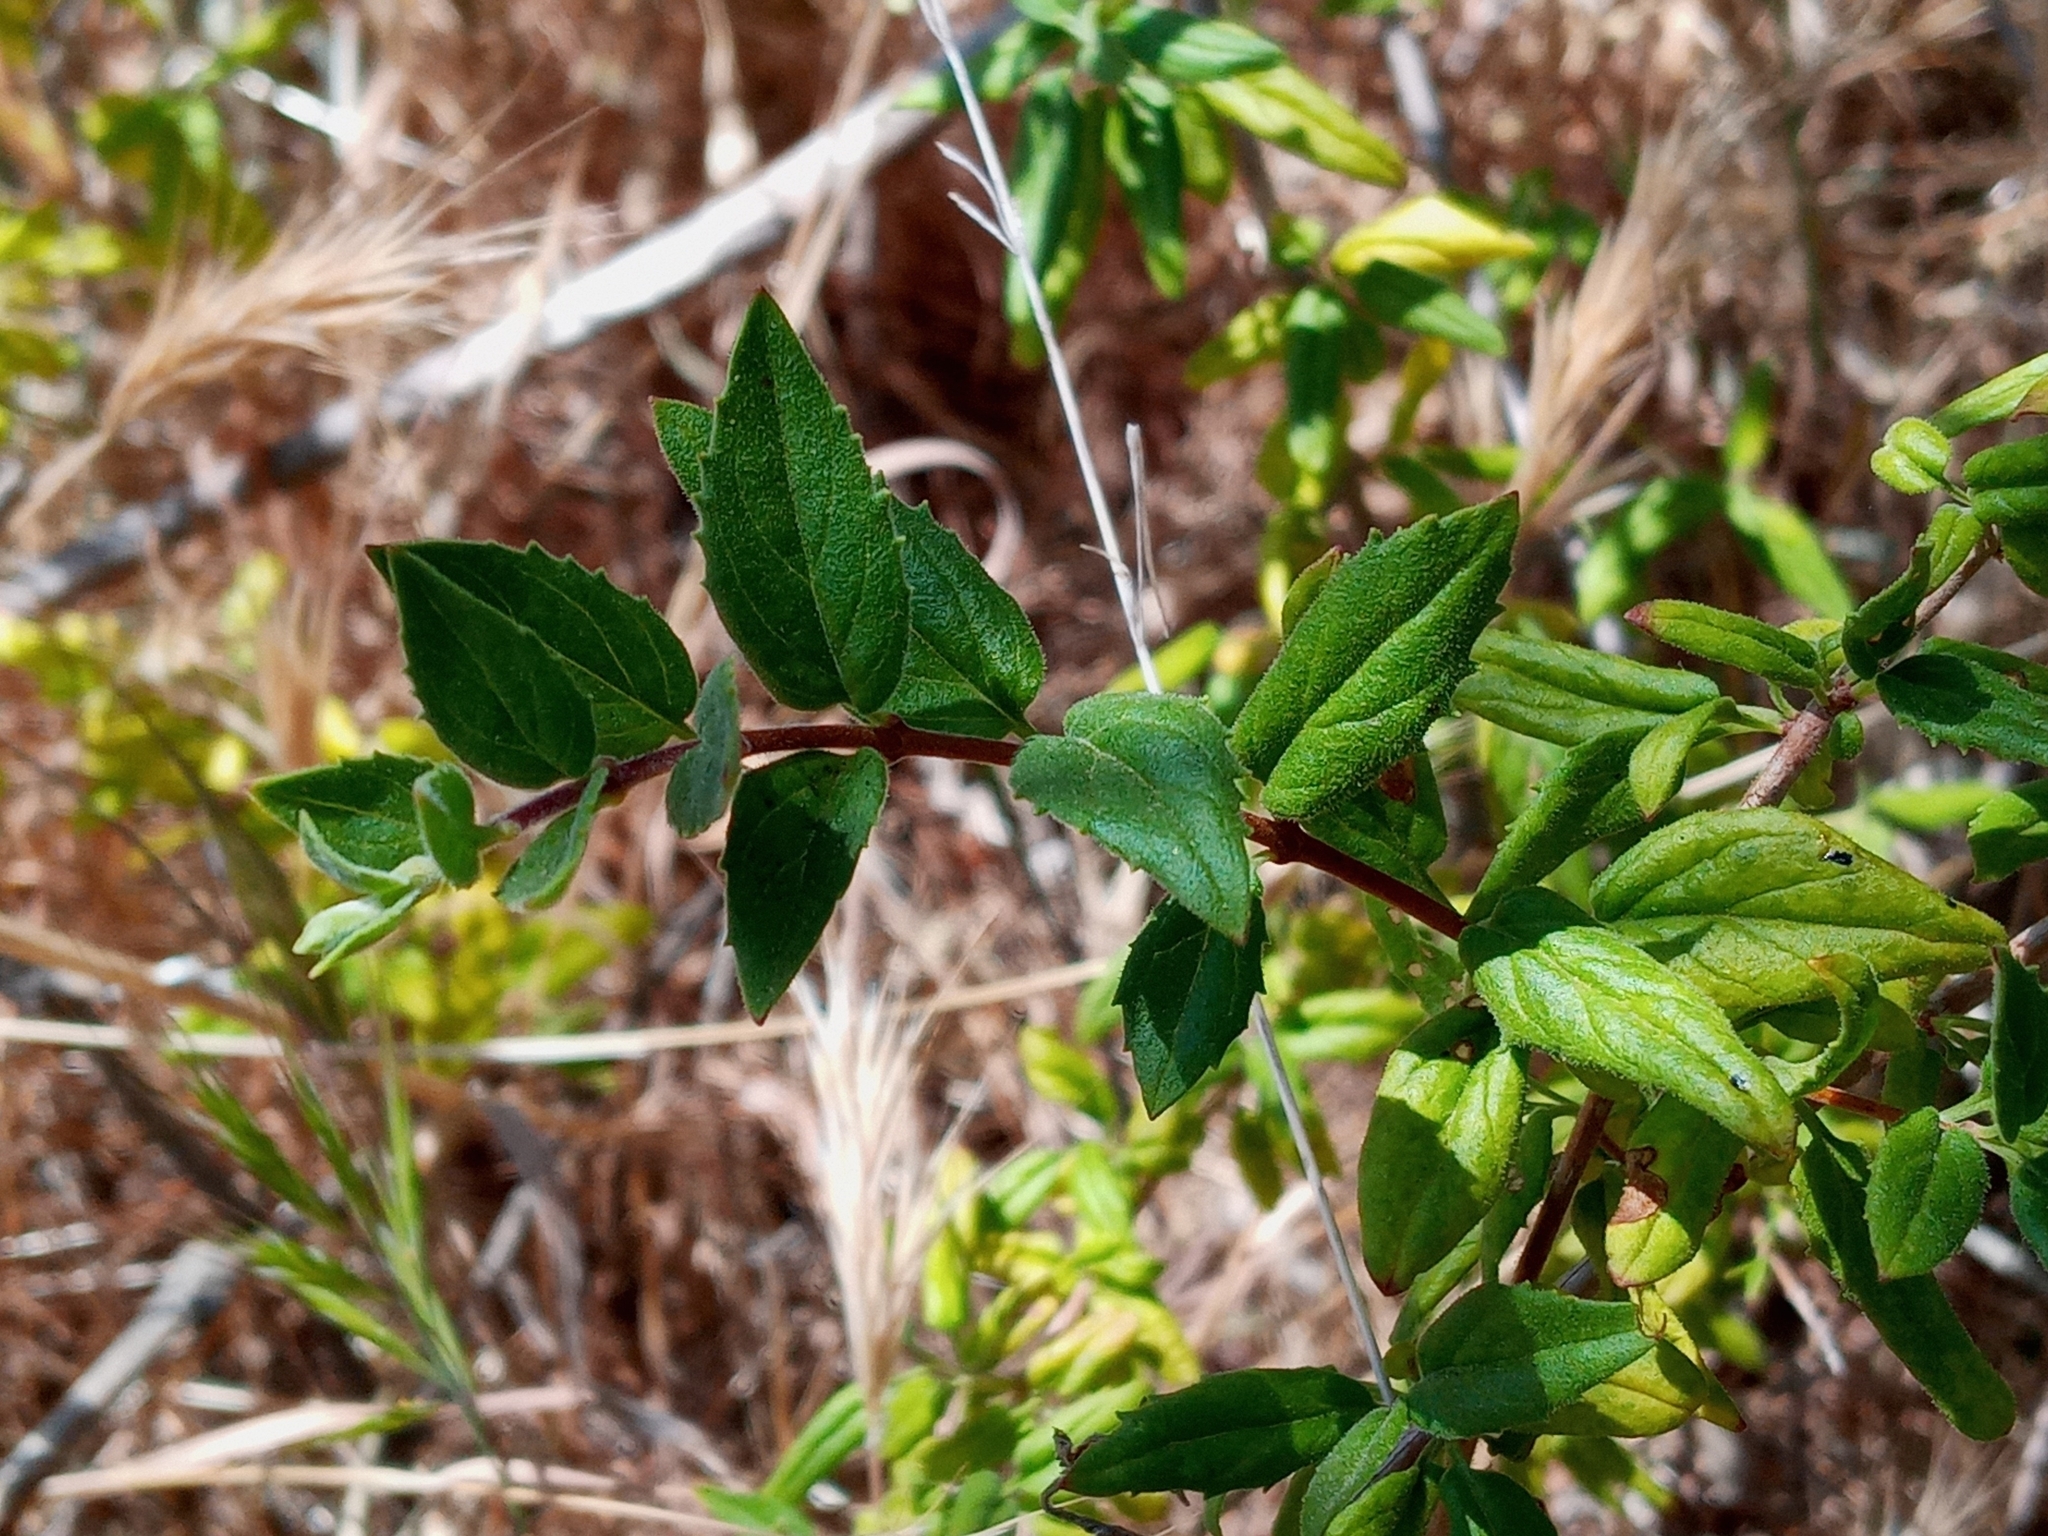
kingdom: Plantae
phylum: Tracheophyta
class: Magnoliopsida
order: Lamiales
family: Plantaginaceae
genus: Keckiella
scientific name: Keckiella cordifolia
